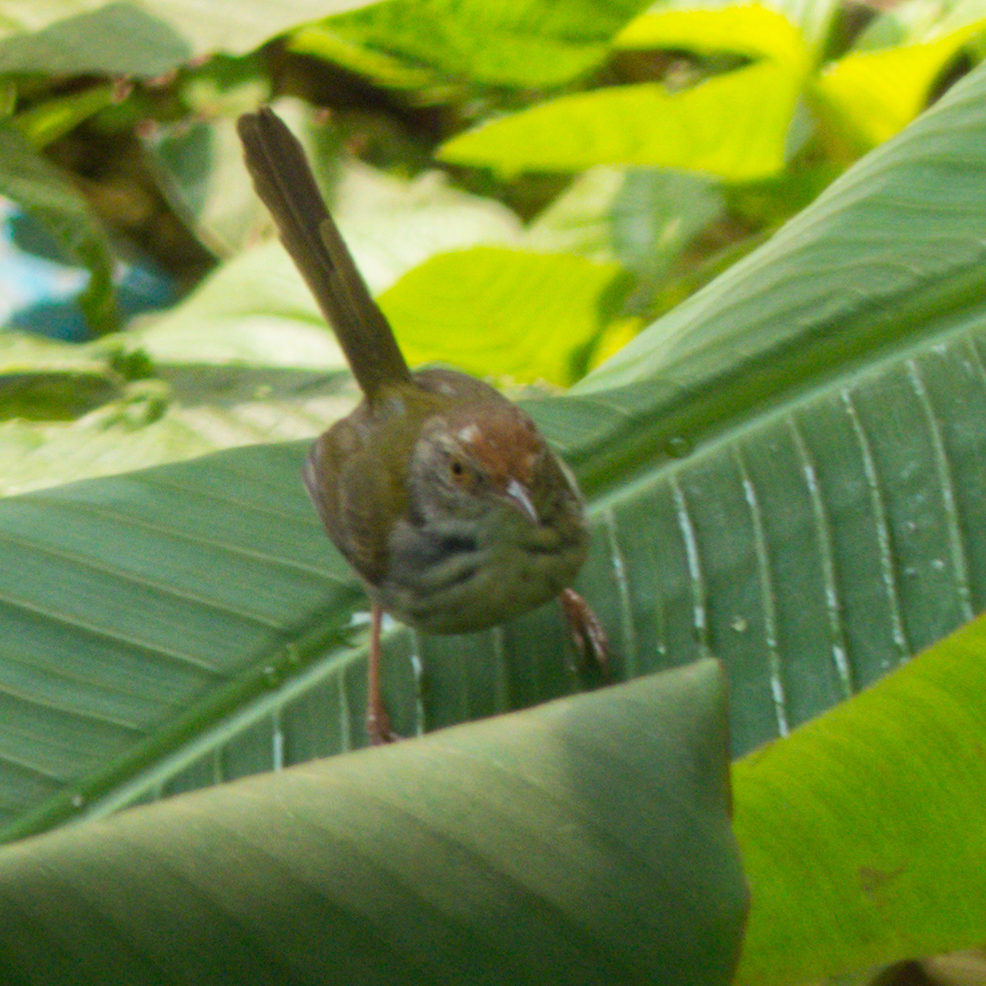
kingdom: Animalia
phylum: Chordata
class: Aves
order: Passeriformes
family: Cisticolidae
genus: Orthotomus
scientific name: Orthotomus sutorius
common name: Common tailorbird
